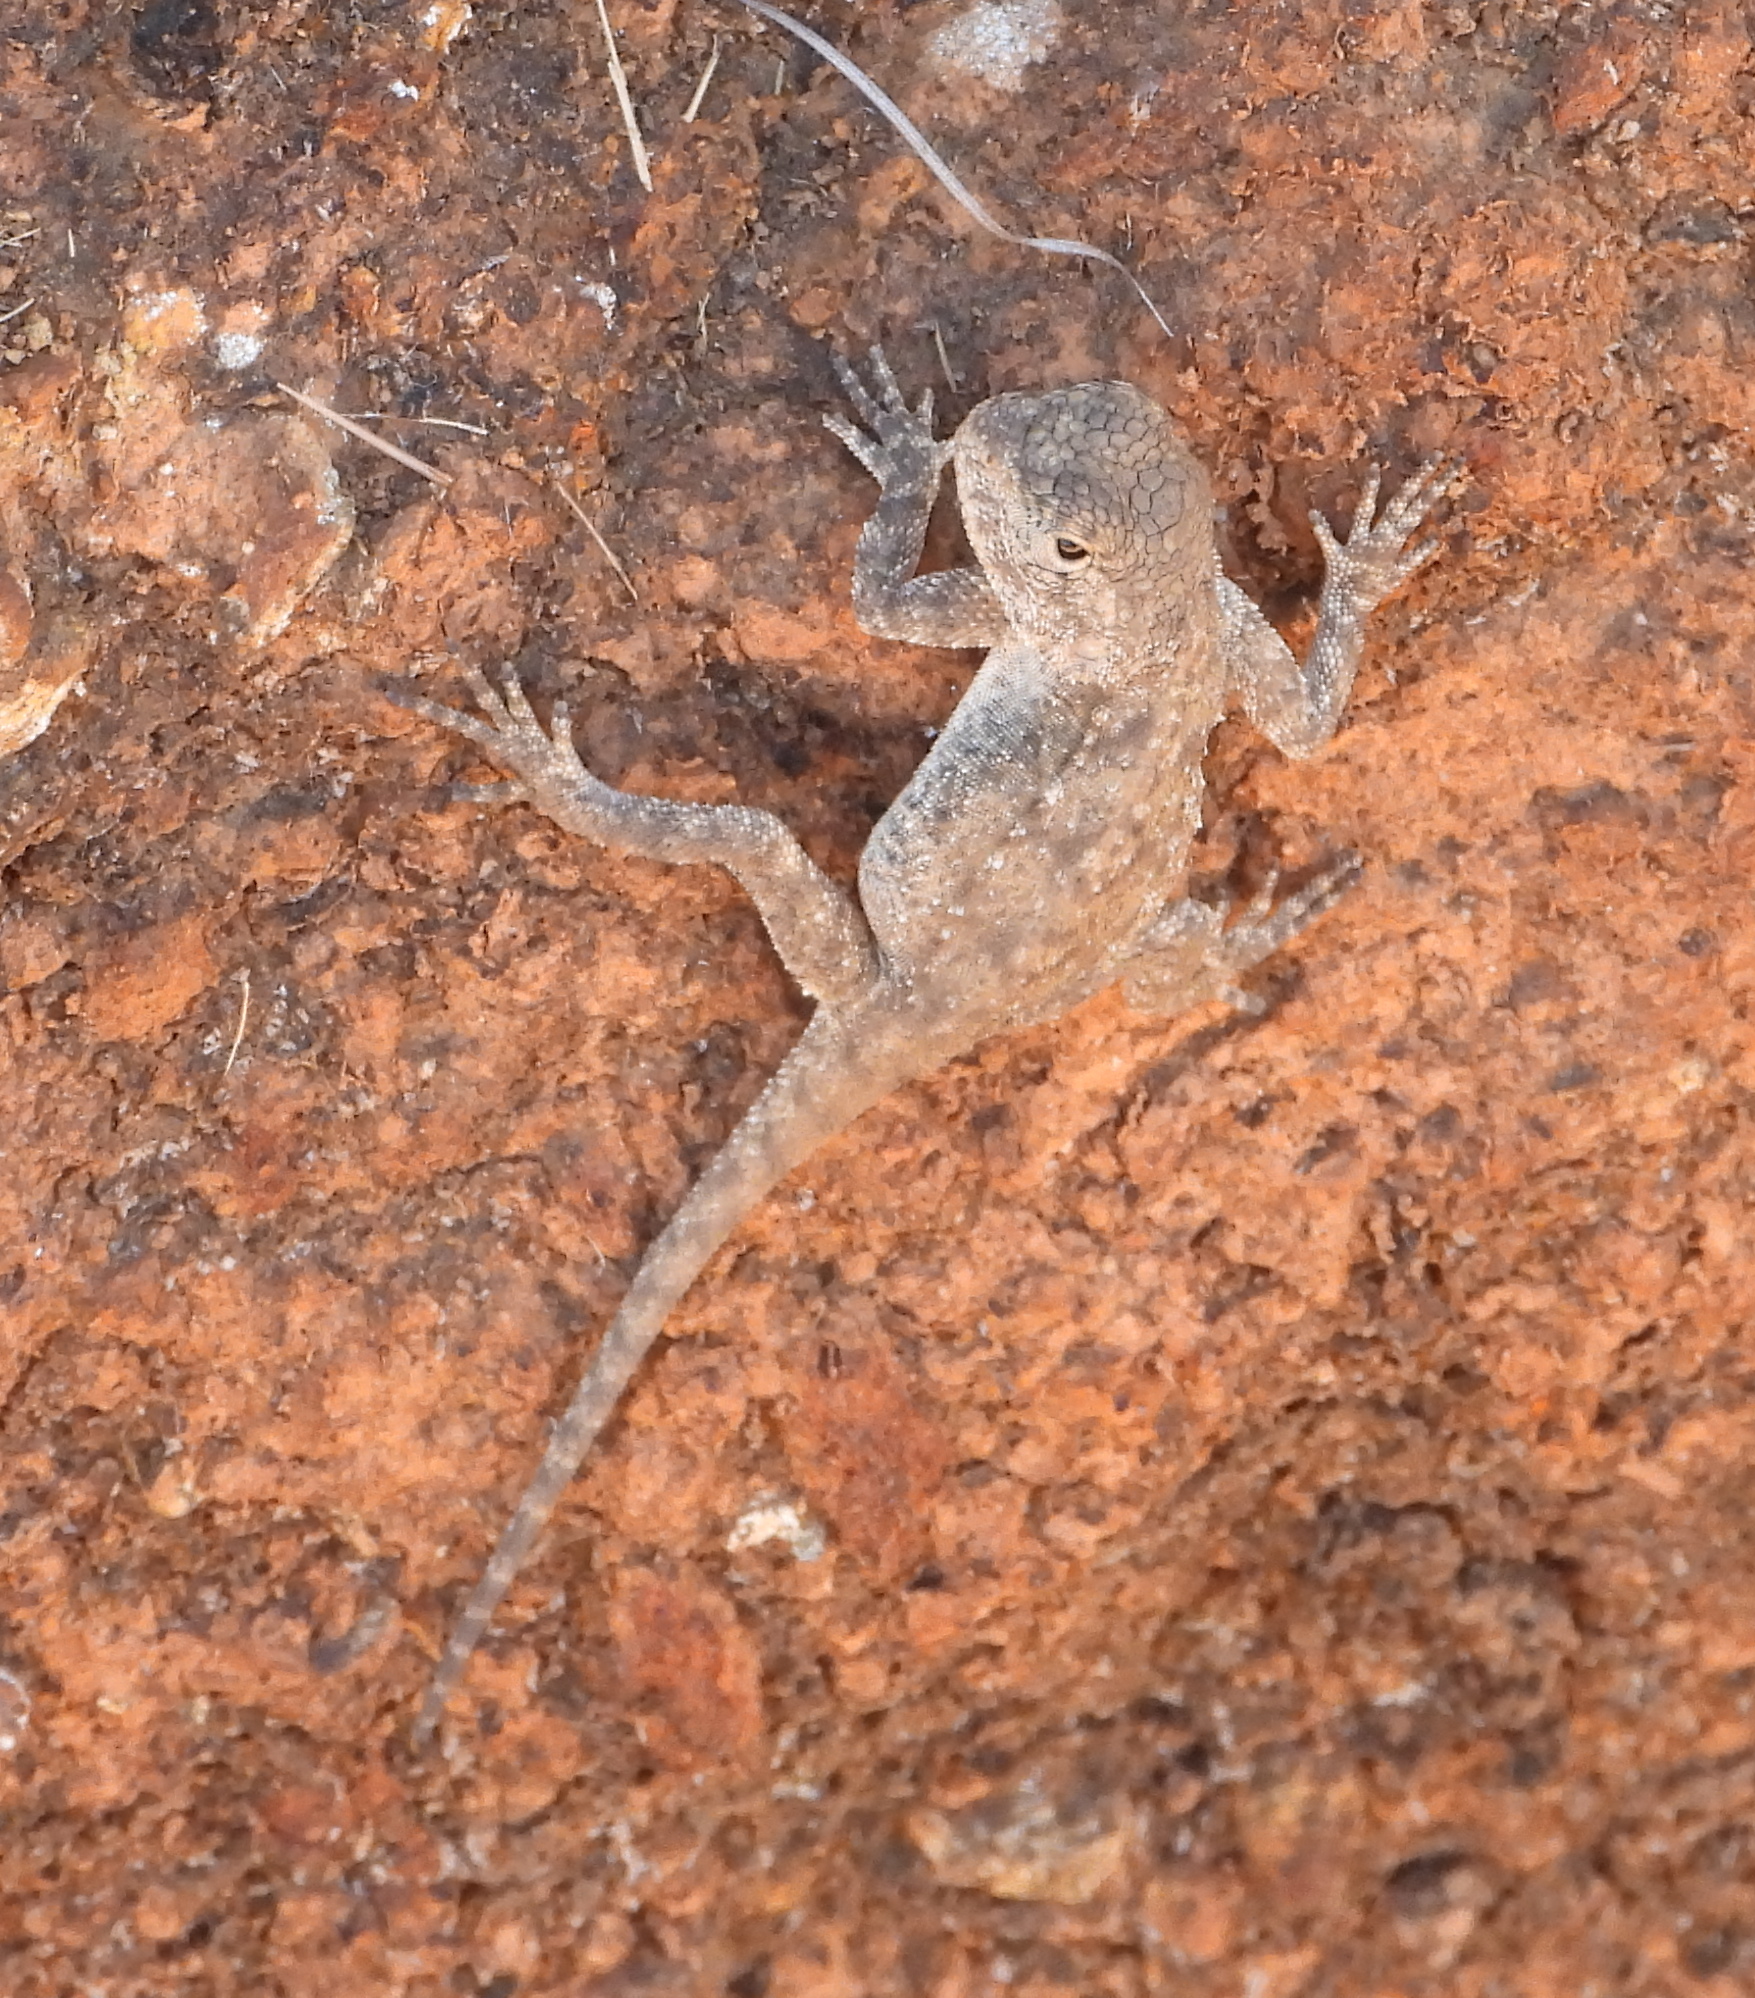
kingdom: Animalia
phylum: Chordata
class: Squamata
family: Agamidae
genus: Agama
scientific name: Agama atra
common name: Southern african rock agama
